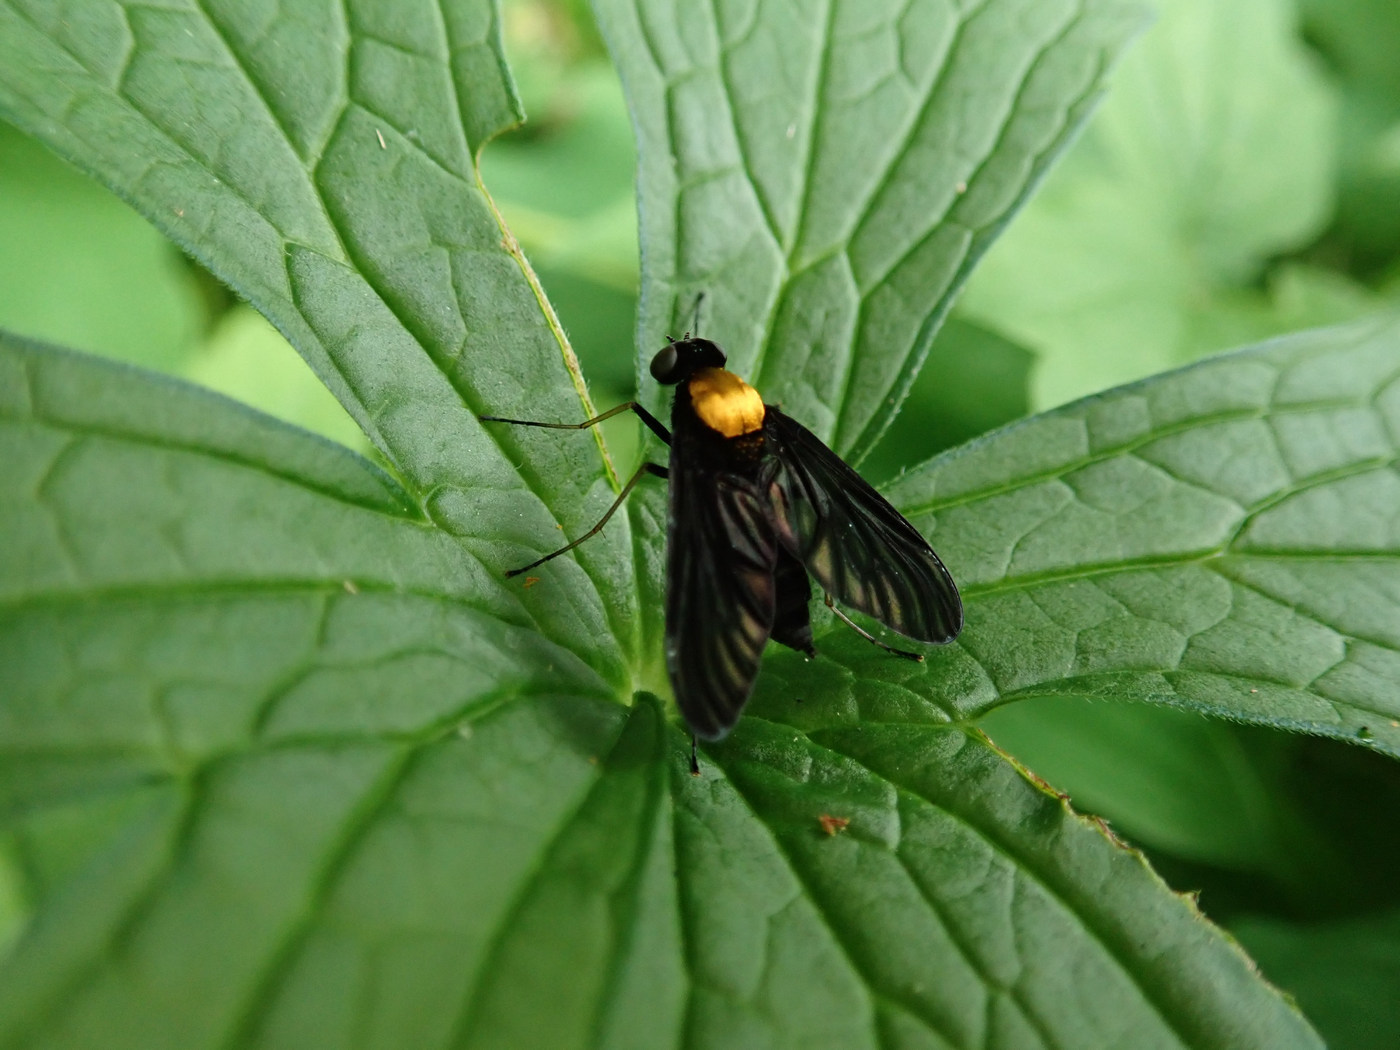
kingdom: Animalia
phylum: Arthropoda
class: Insecta
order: Diptera
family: Rhagionidae
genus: Chrysopilus
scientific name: Chrysopilus davisi
